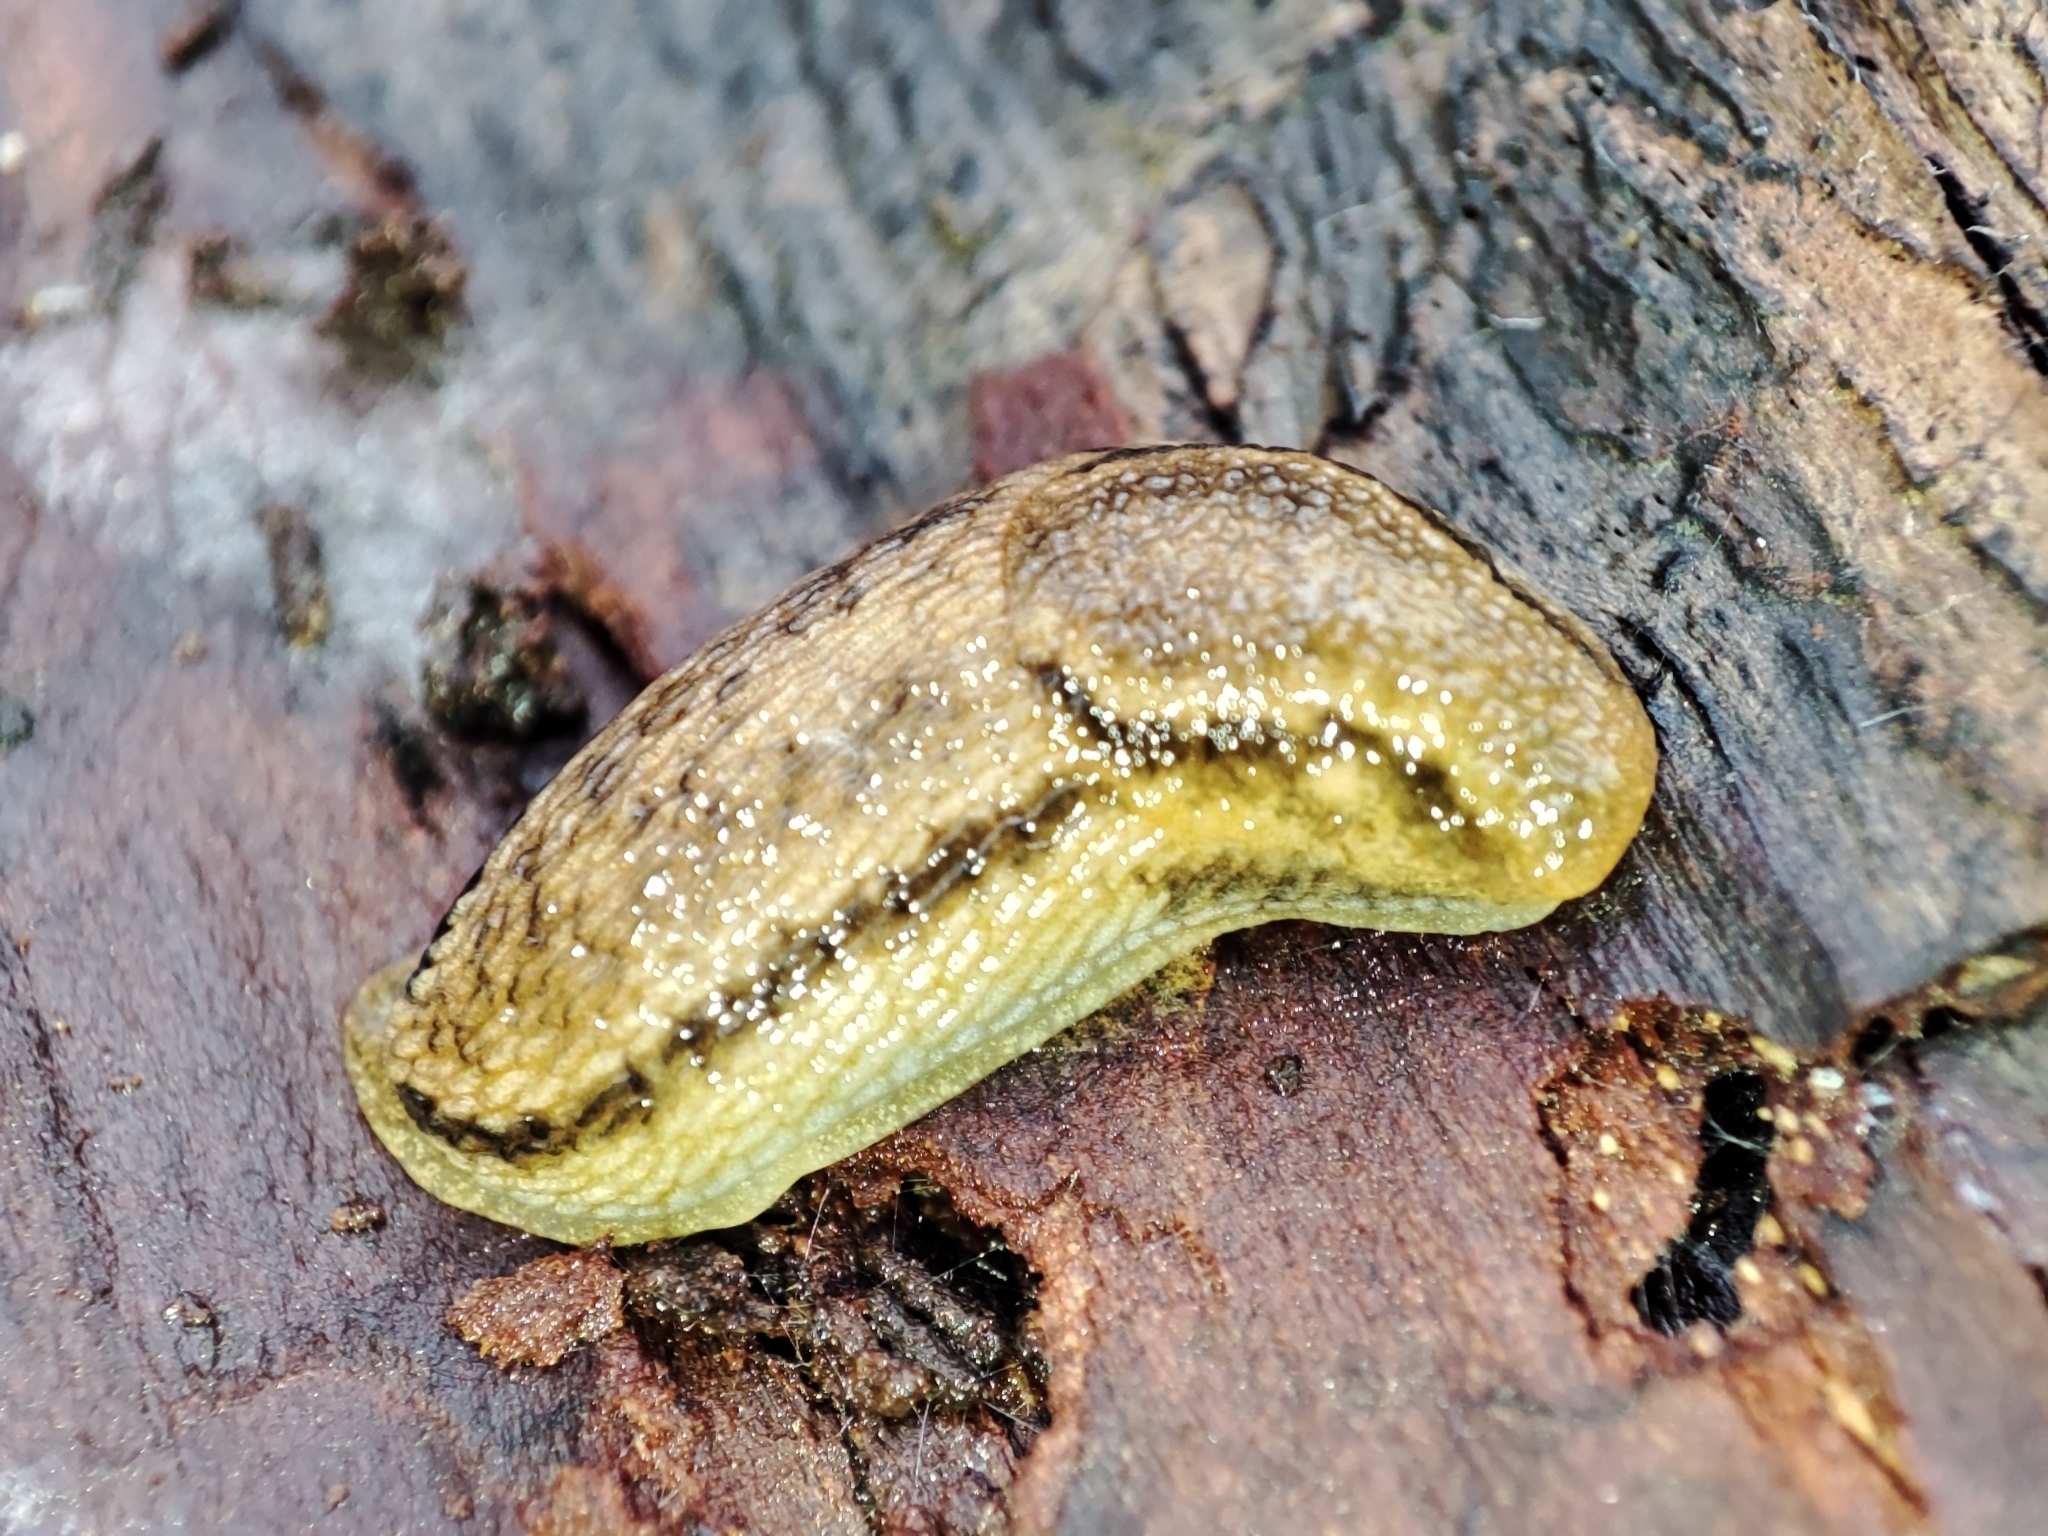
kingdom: Animalia
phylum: Mollusca
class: Gastropoda
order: Stylommatophora
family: Arionidae
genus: Arion
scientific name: Arion fuscus
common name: Northern dusky slug
